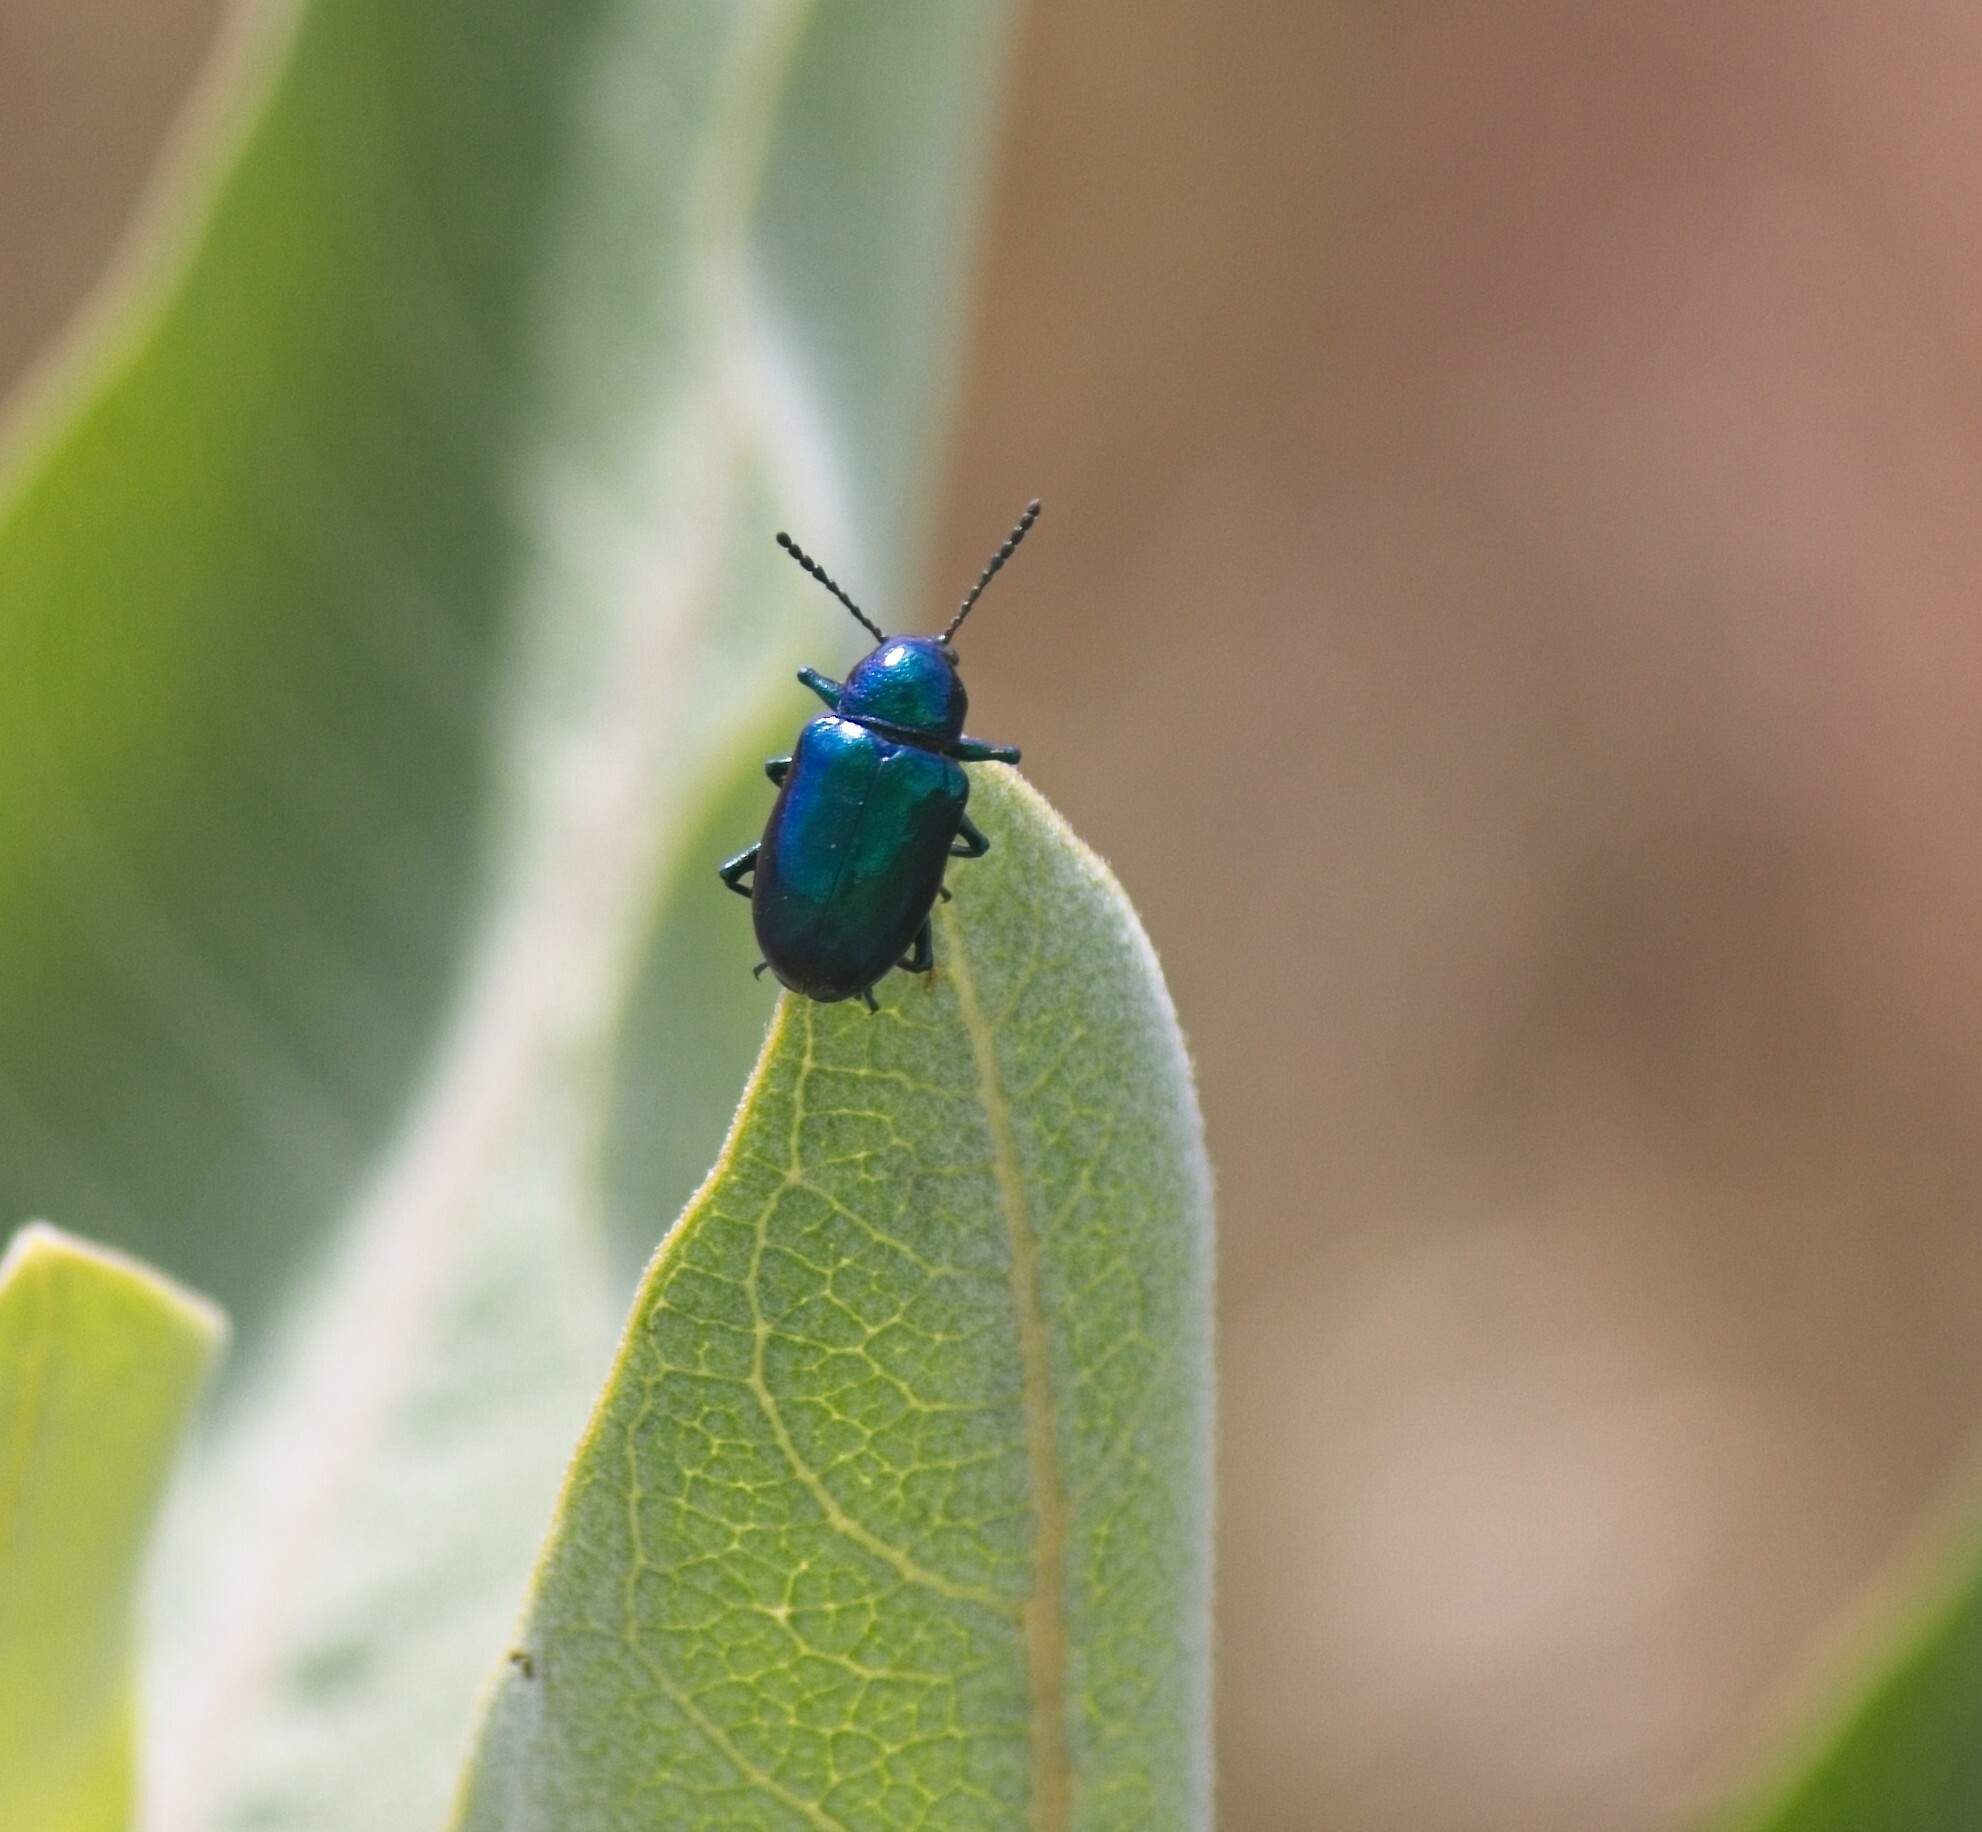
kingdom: Animalia
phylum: Arthropoda
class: Insecta
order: Coleoptera
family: Chrysomelidae
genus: Chrysochus
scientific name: Chrysochus cobaltinus
